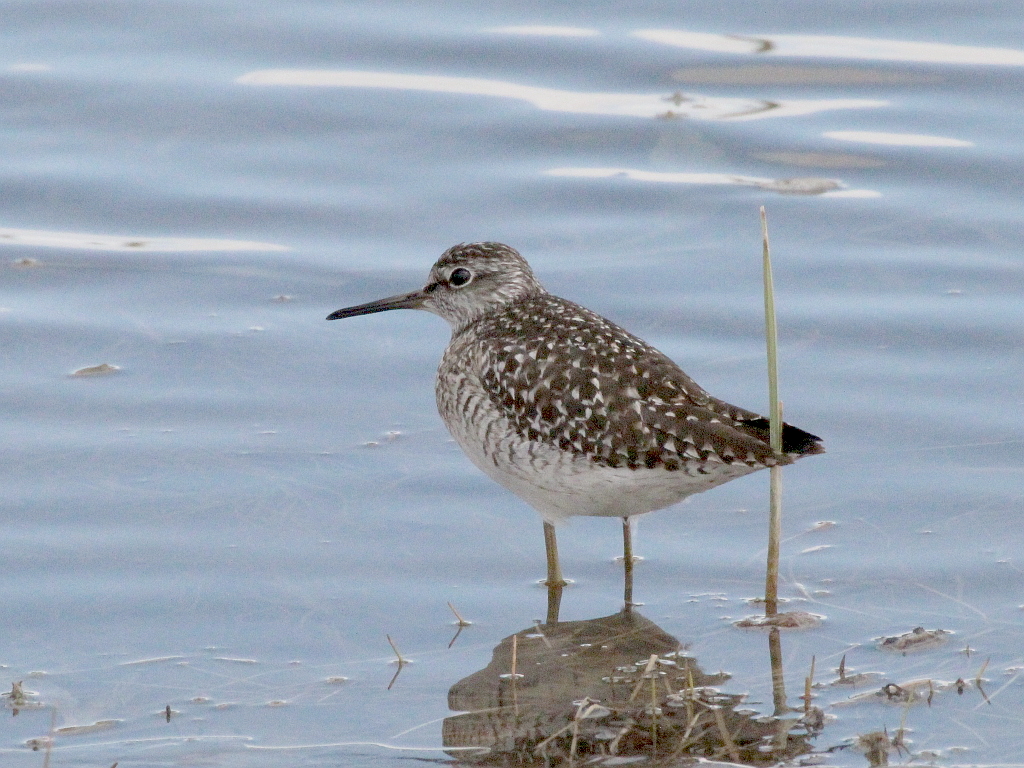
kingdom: Animalia
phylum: Chordata
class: Aves
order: Charadriiformes
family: Scolopacidae
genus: Tringa
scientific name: Tringa glareola
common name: Wood sandpiper
